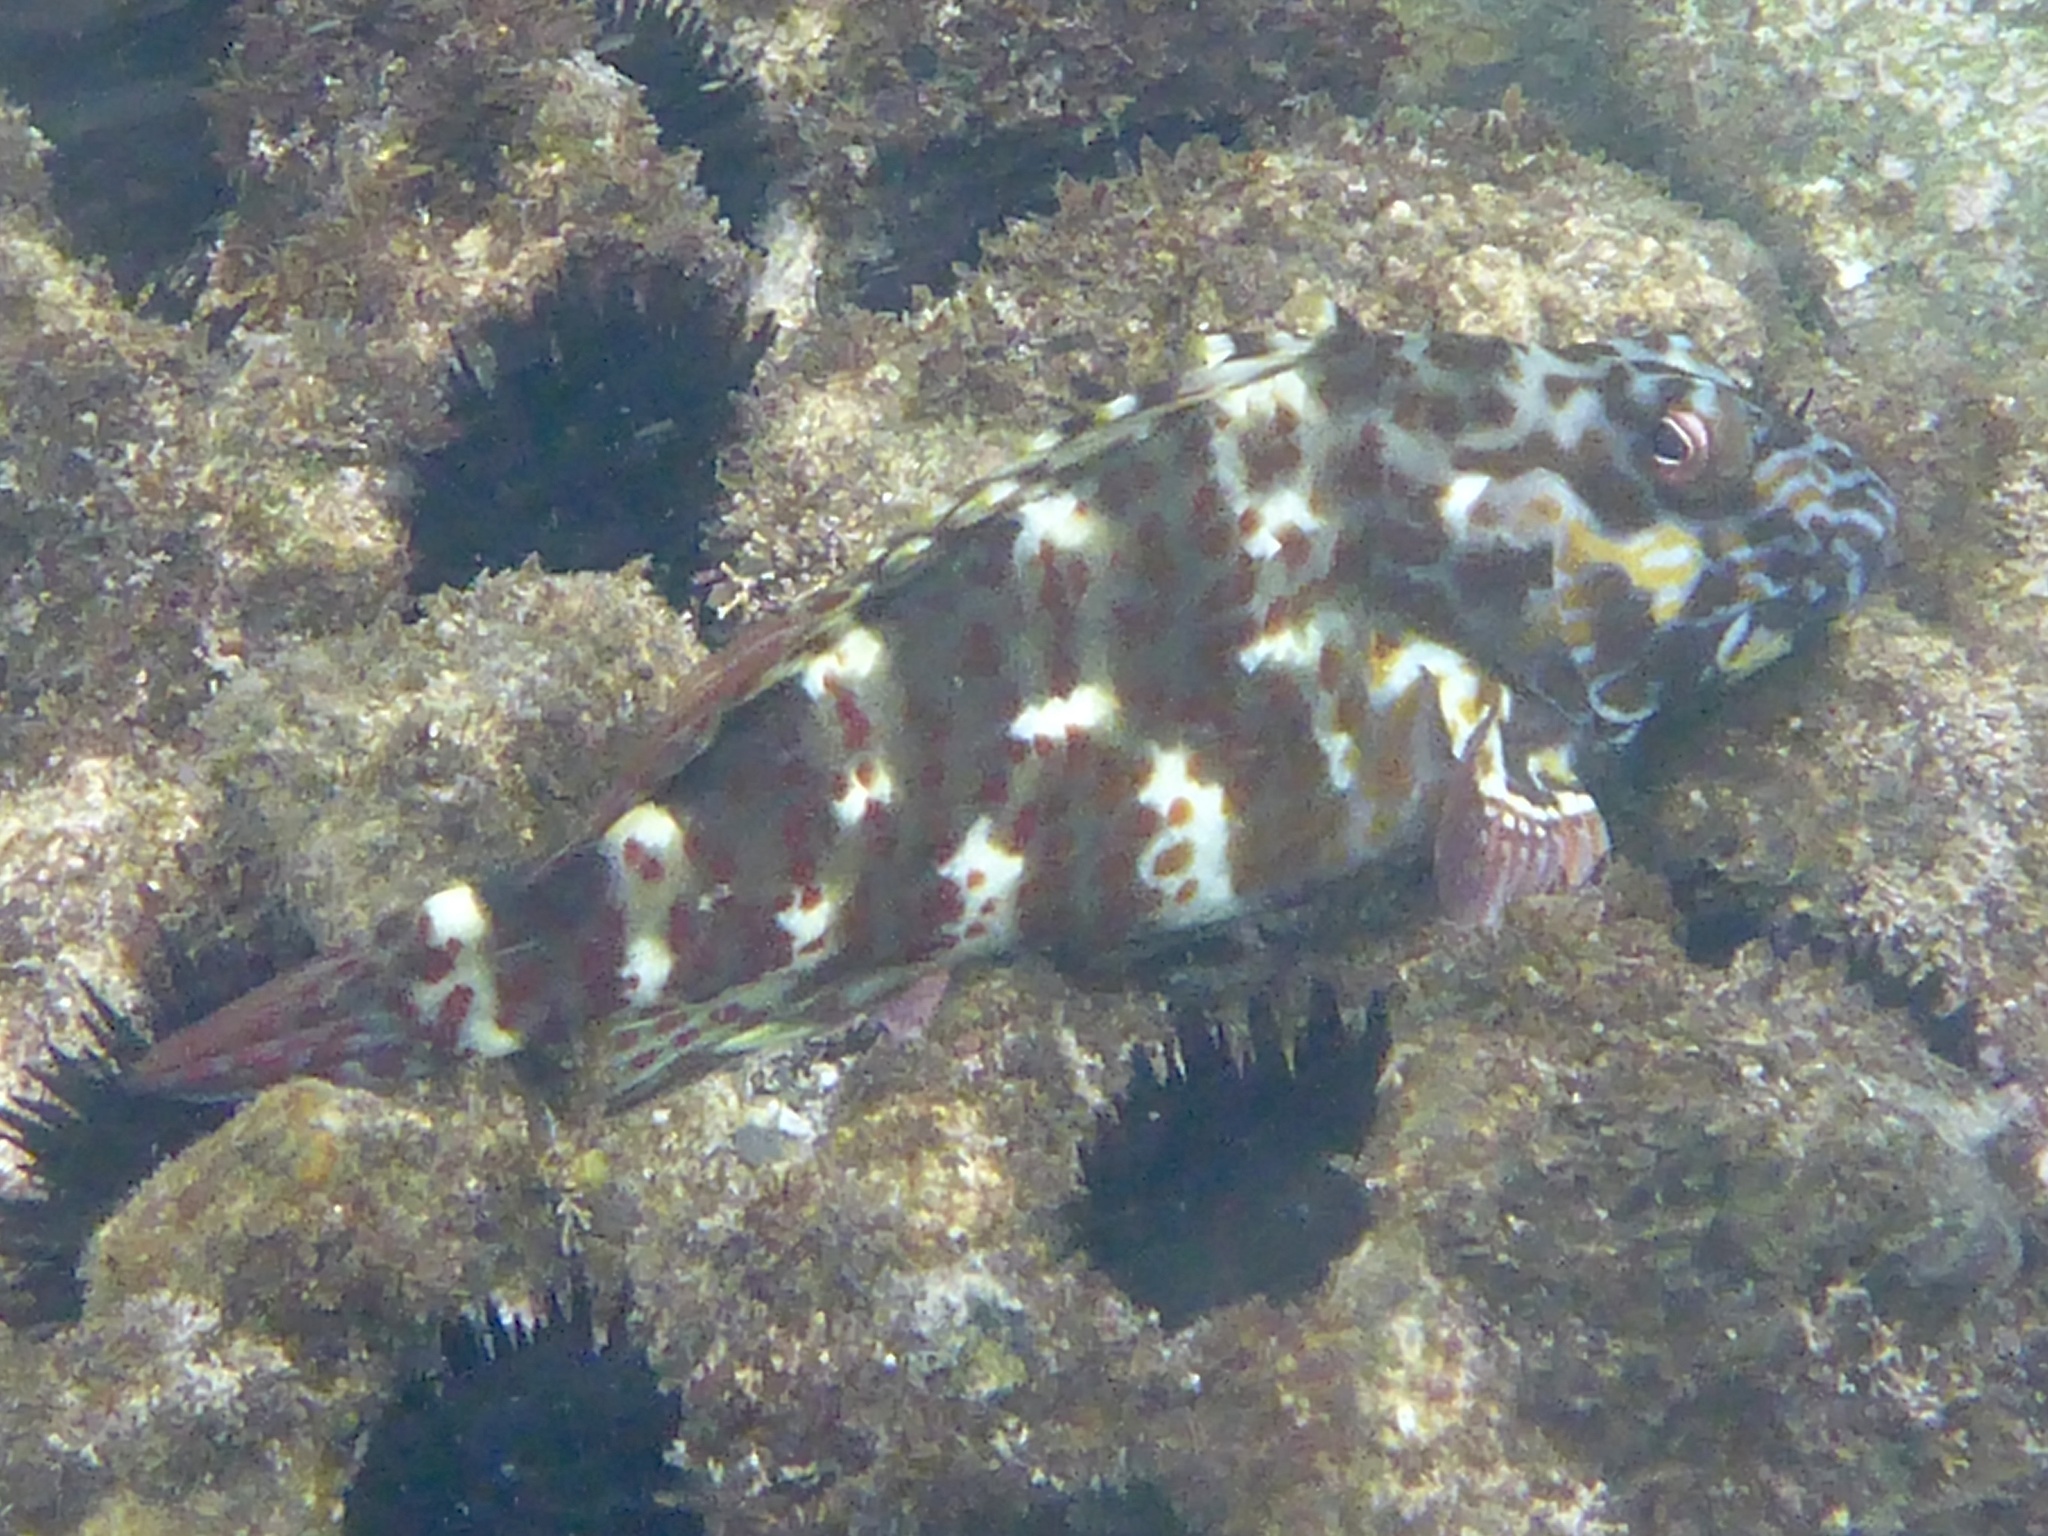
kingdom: Animalia
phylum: Chordata
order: Perciformes
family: Cirrhitidae
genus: Cirrhitus
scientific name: Cirrhitus pinnulatus
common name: Stocky hawkfish
